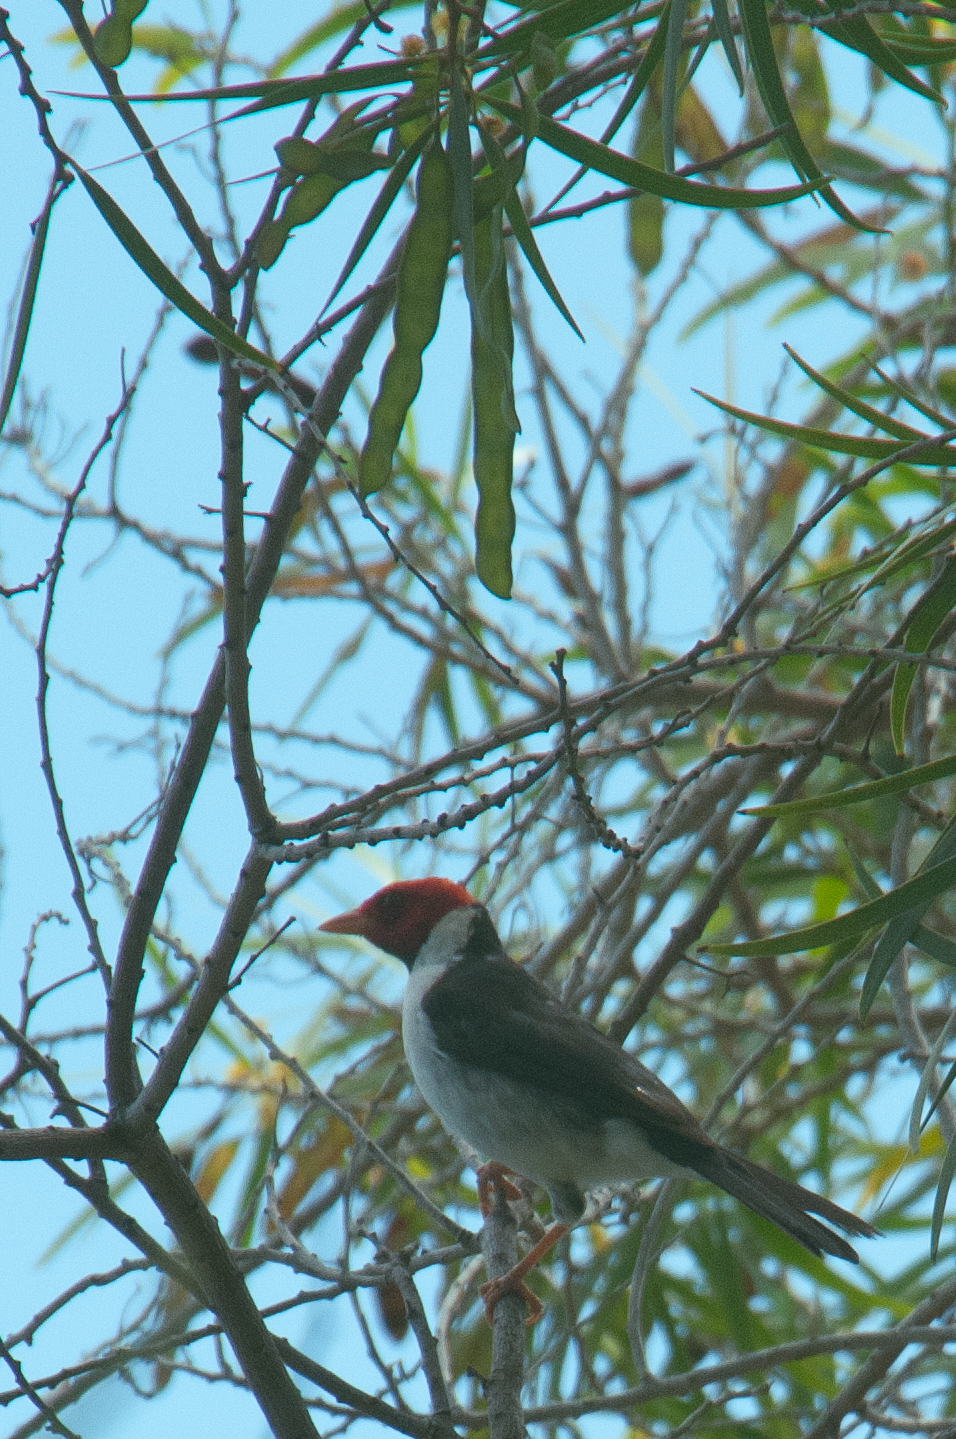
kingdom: Animalia
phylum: Chordata
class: Aves
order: Passeriformes
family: Thraupidae
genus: Paroaria
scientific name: Paroaria capitata
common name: Yellow-billed cardinal
